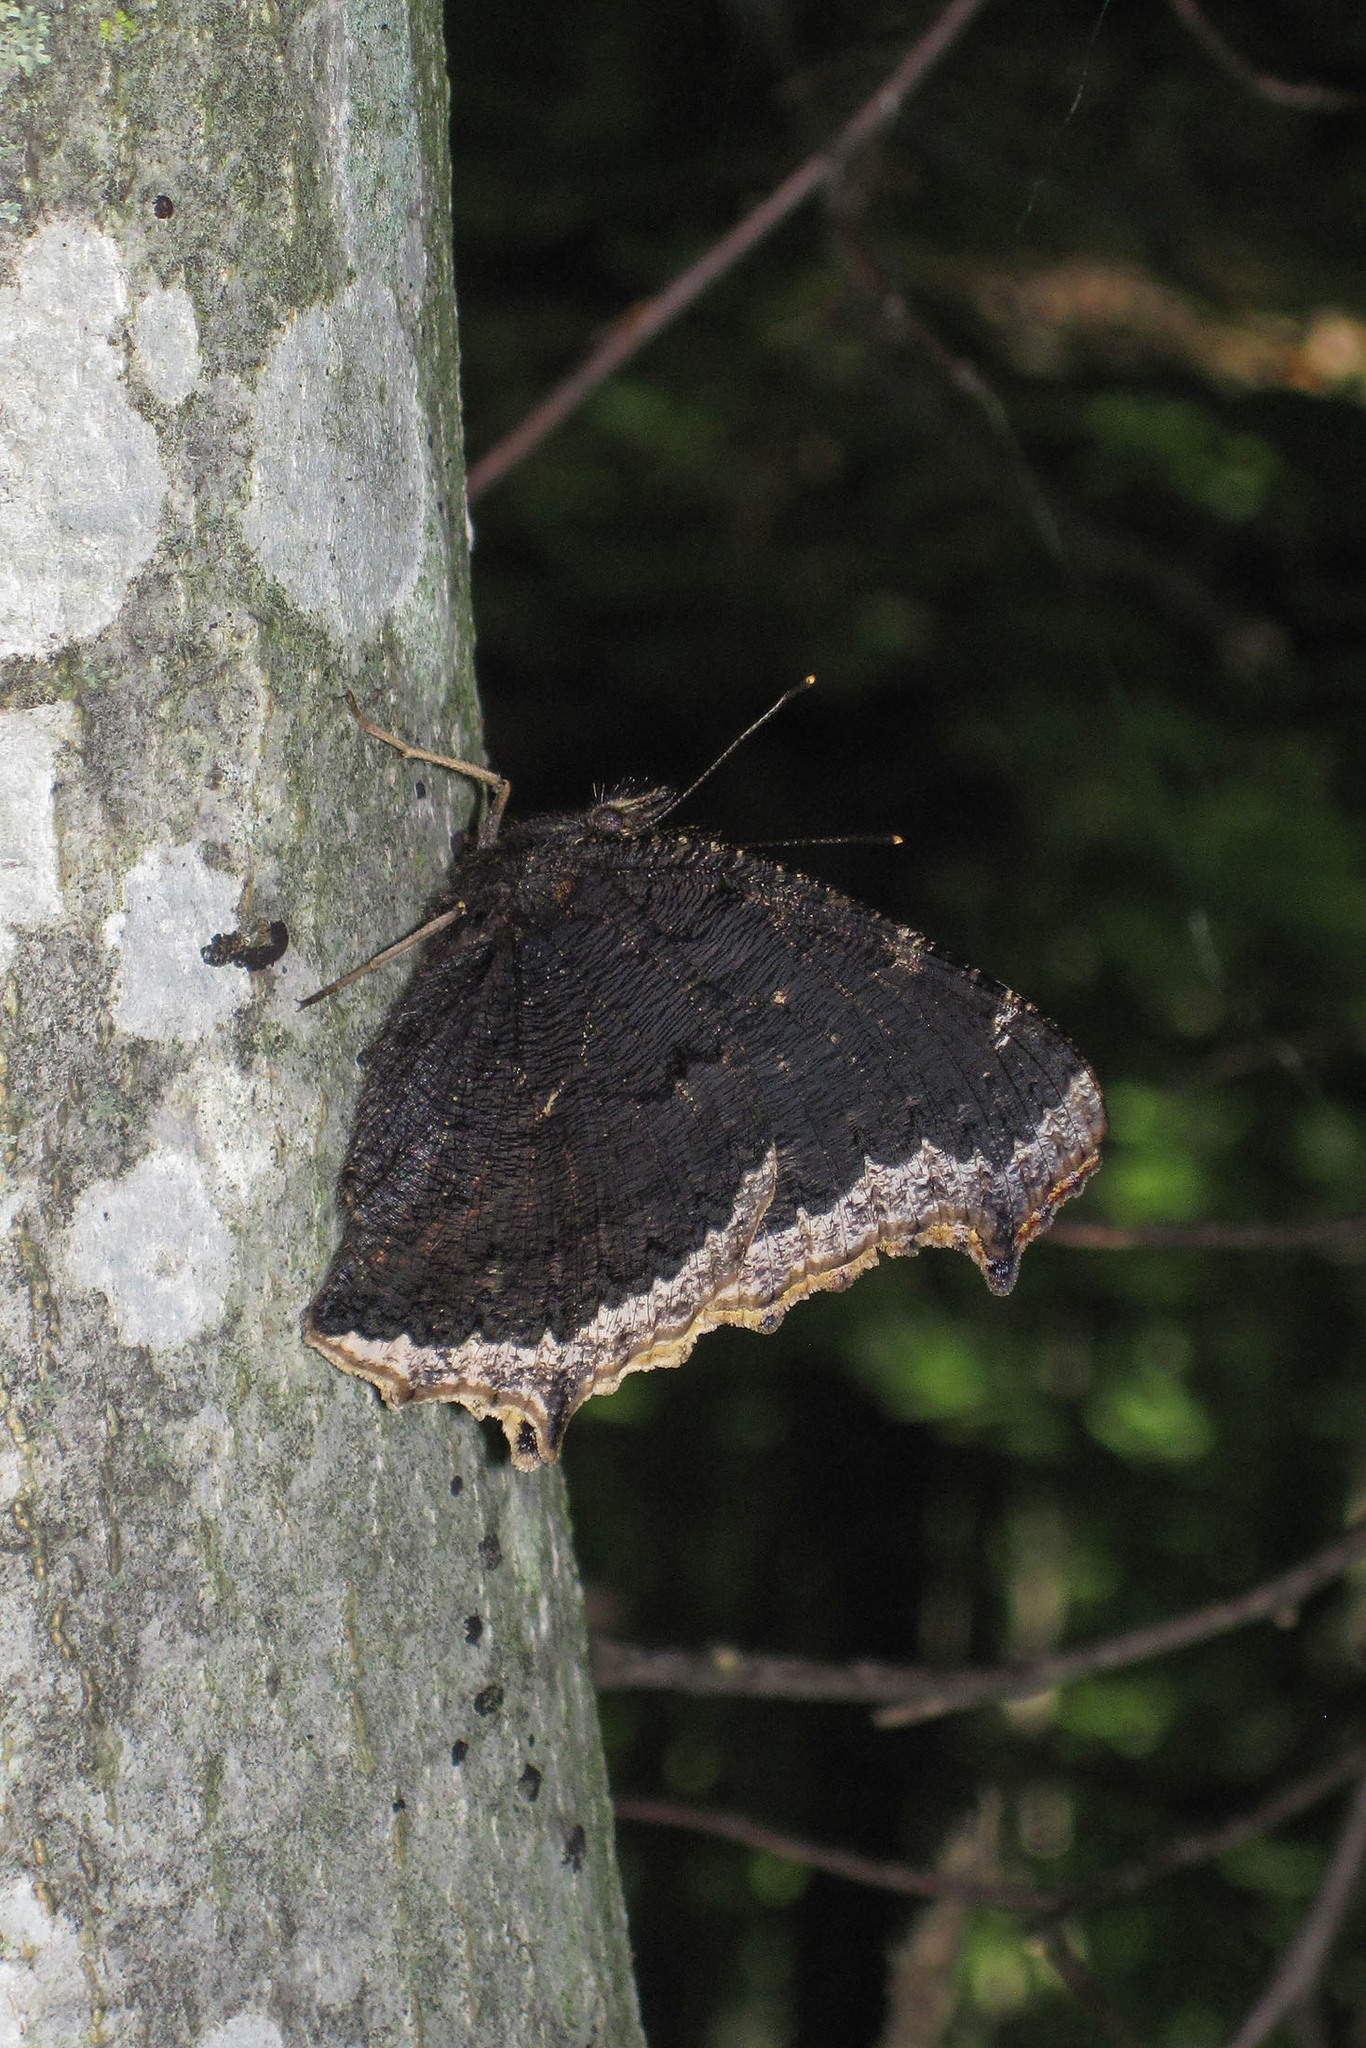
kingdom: Animalia
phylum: Arthropoda
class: Insecta
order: Lepidoptera
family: Nymphalidae
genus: Nymphalis
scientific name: Nymphalis antiopa
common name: Camberwell beauty
